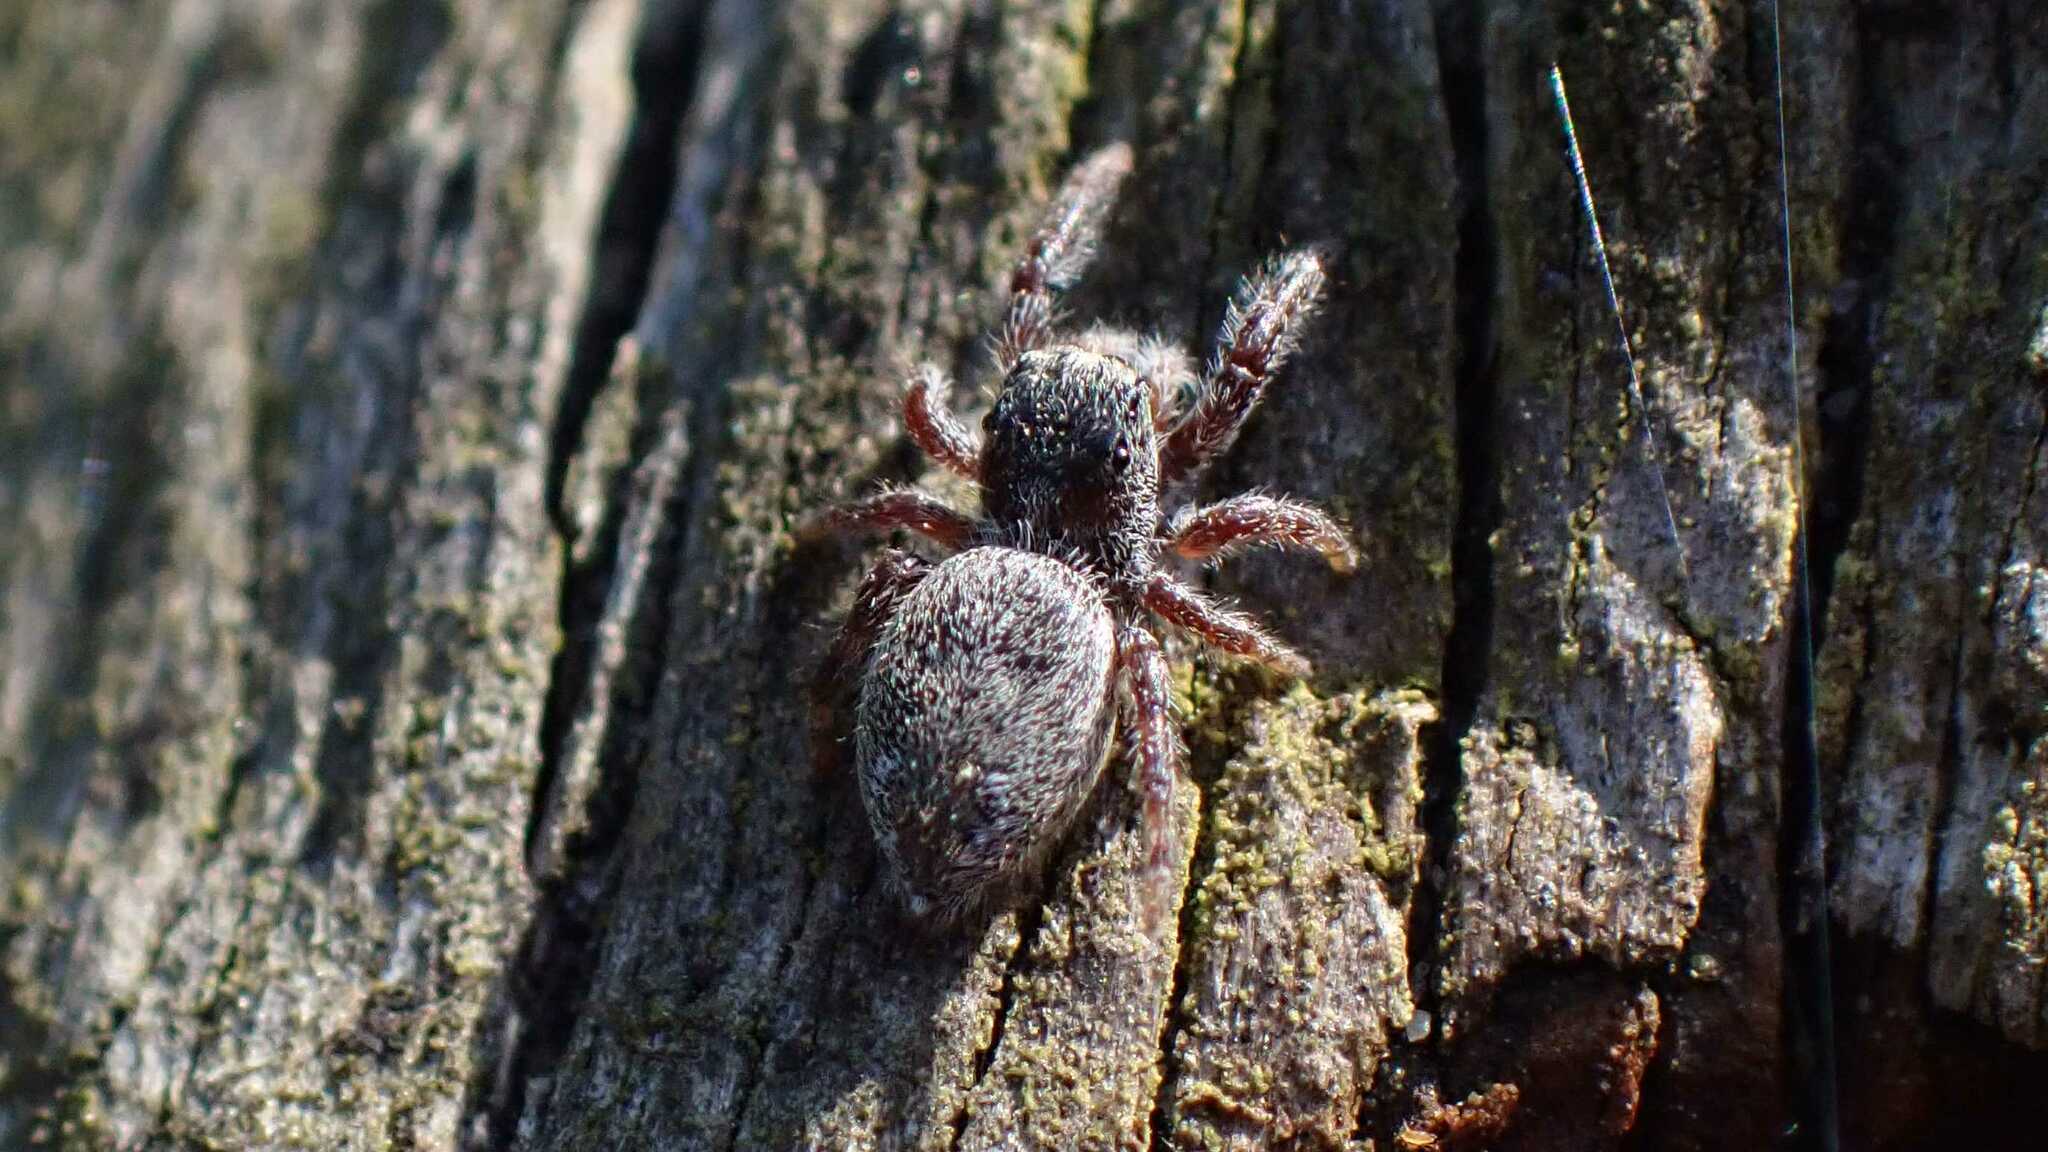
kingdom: Animalia
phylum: Arthropoda
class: Arachnida
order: Araneae
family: Salticidae
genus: Dendryphantes
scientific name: Dendryphantes rudis
